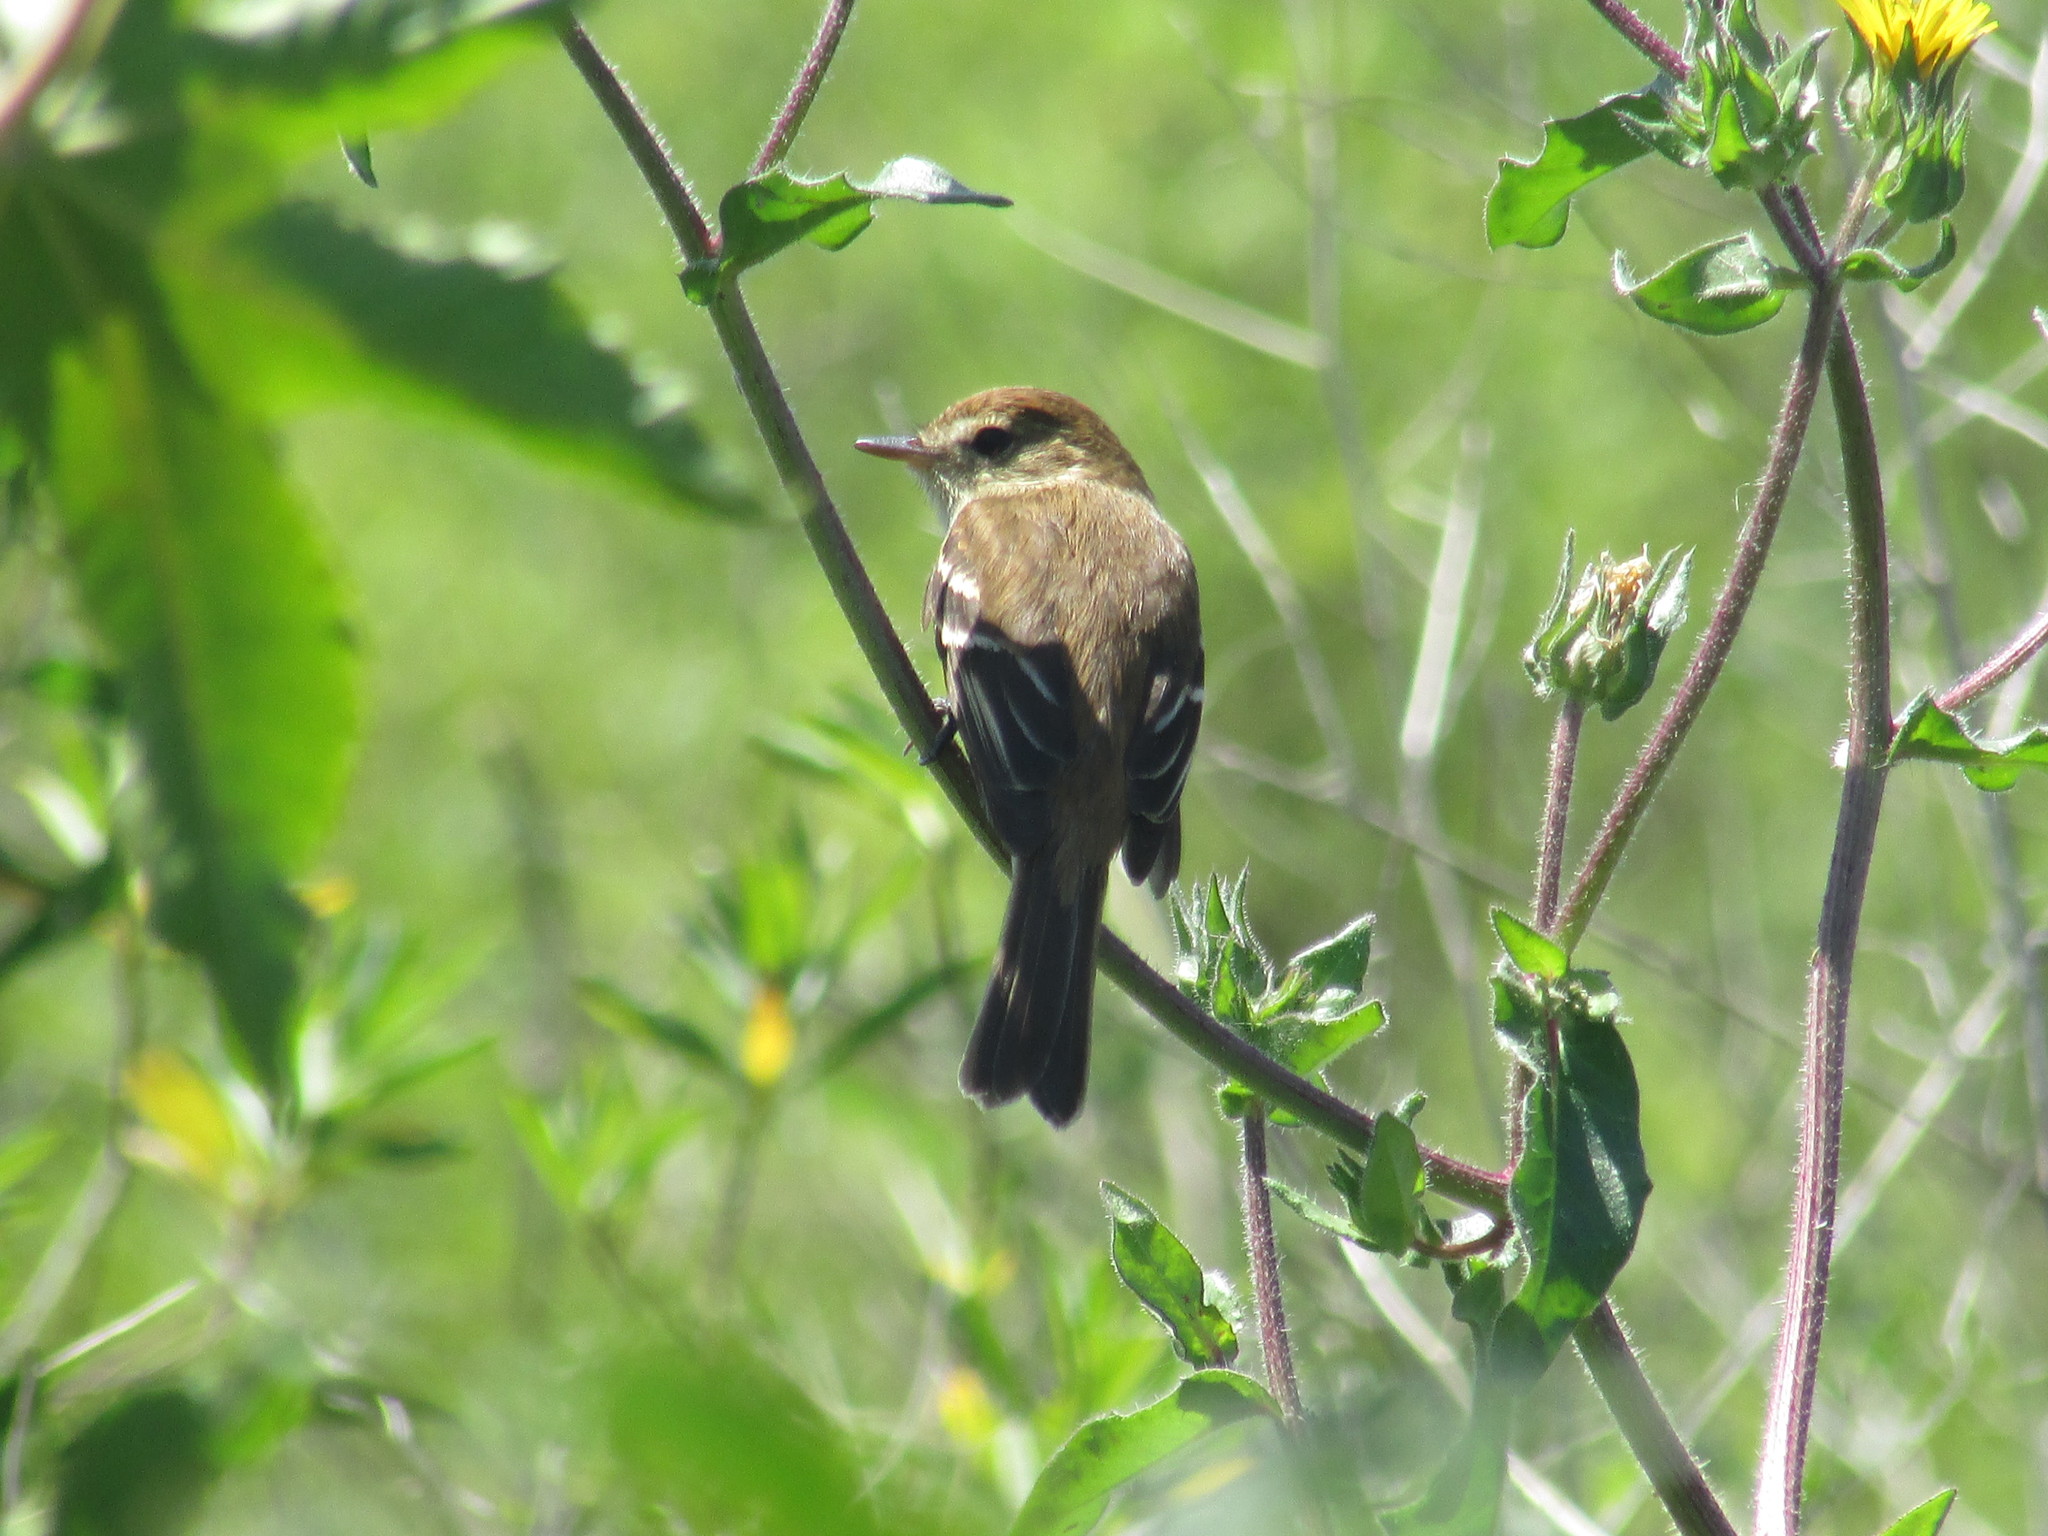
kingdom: Animalia
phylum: Chordata
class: Aves
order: Passeriformes
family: Tyrannidae
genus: Myiophobus
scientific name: Myiophobus fasciatus
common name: Bran-colored flycatcher
